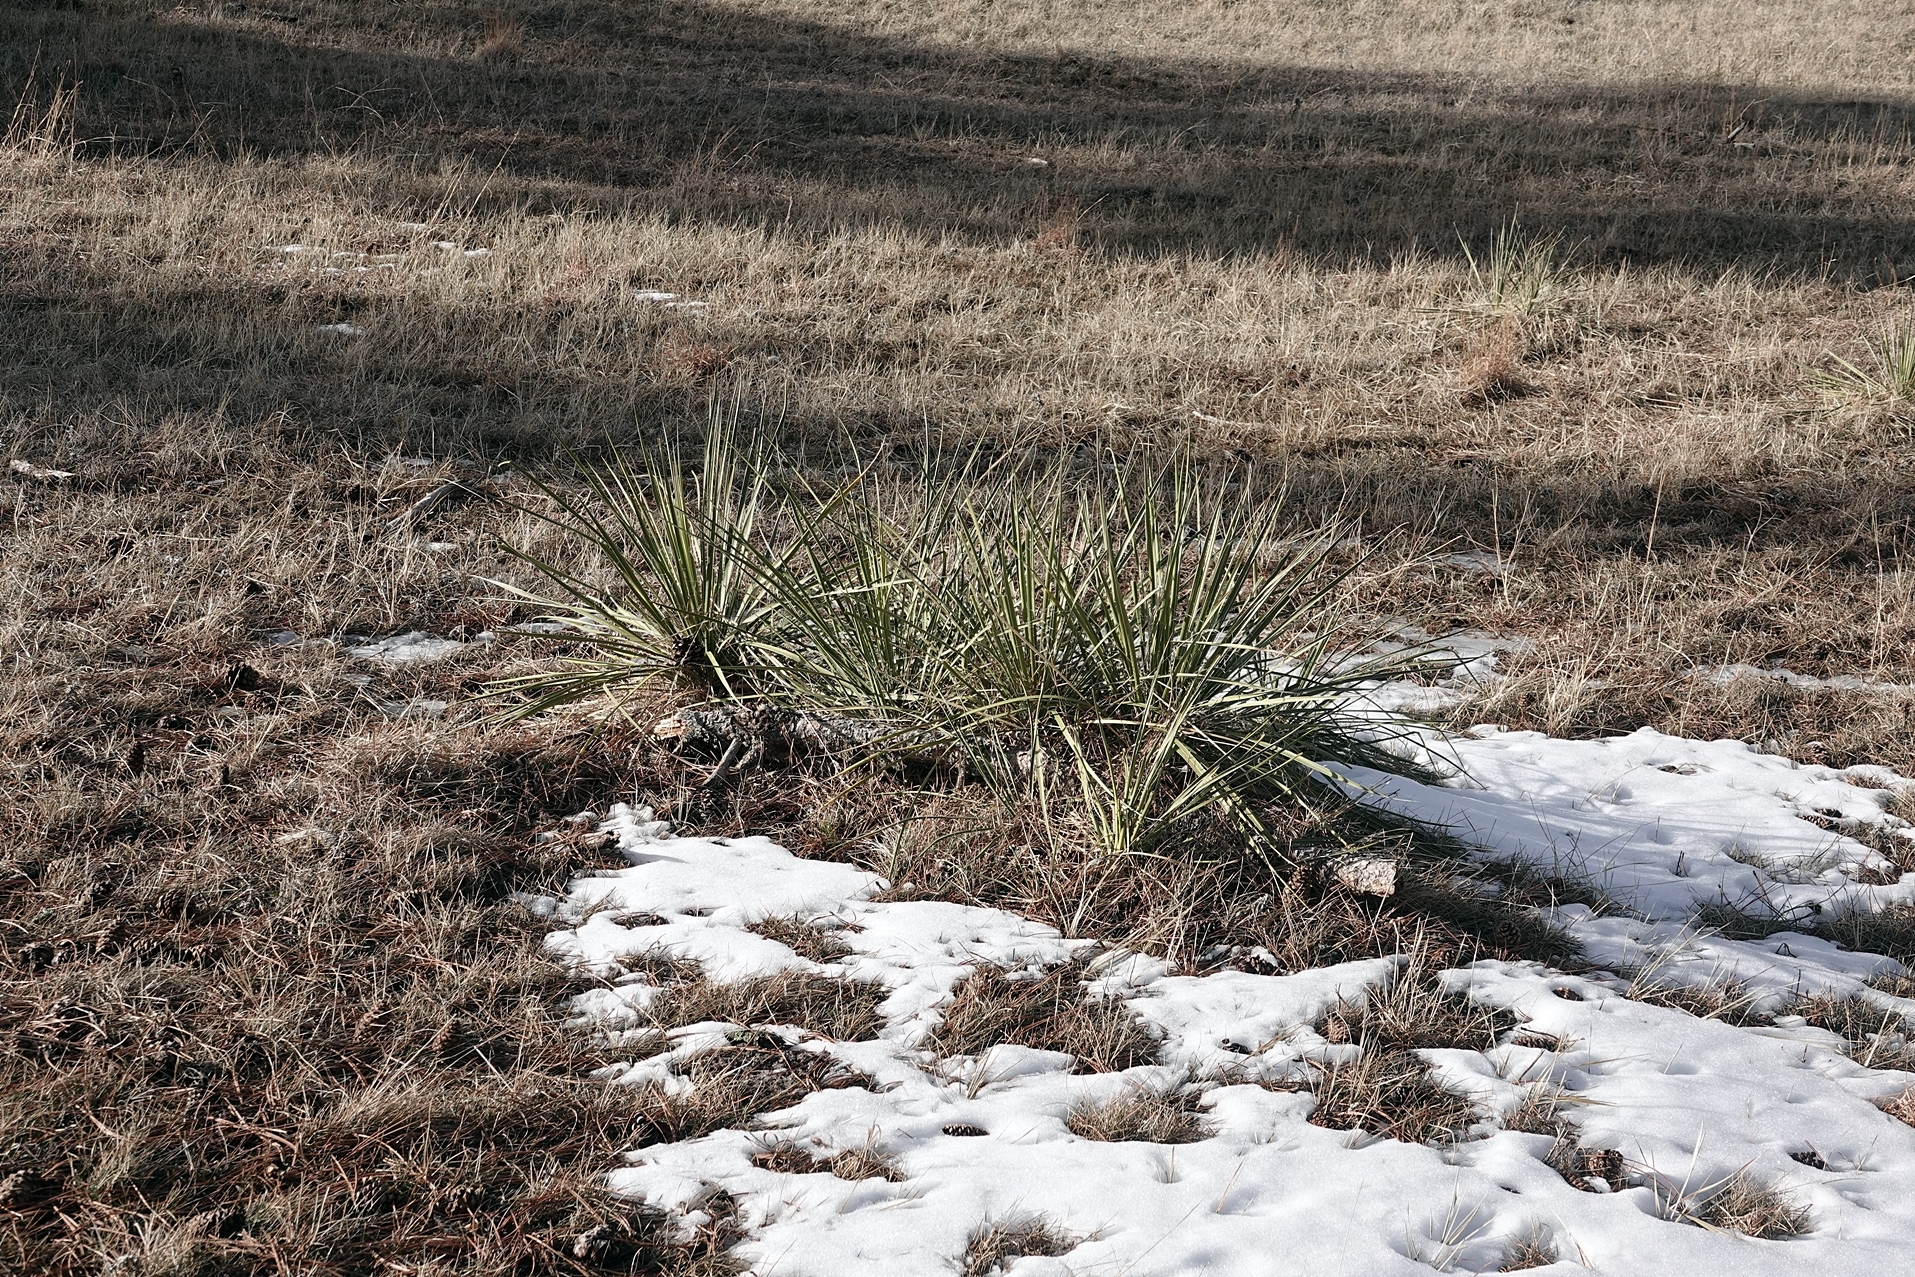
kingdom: Plantae
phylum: Tracheophyta
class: Liliopsida
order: Asparagales
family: Asparagaceae
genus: Yucca
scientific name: Yucca glauca
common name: Great plains yucca
